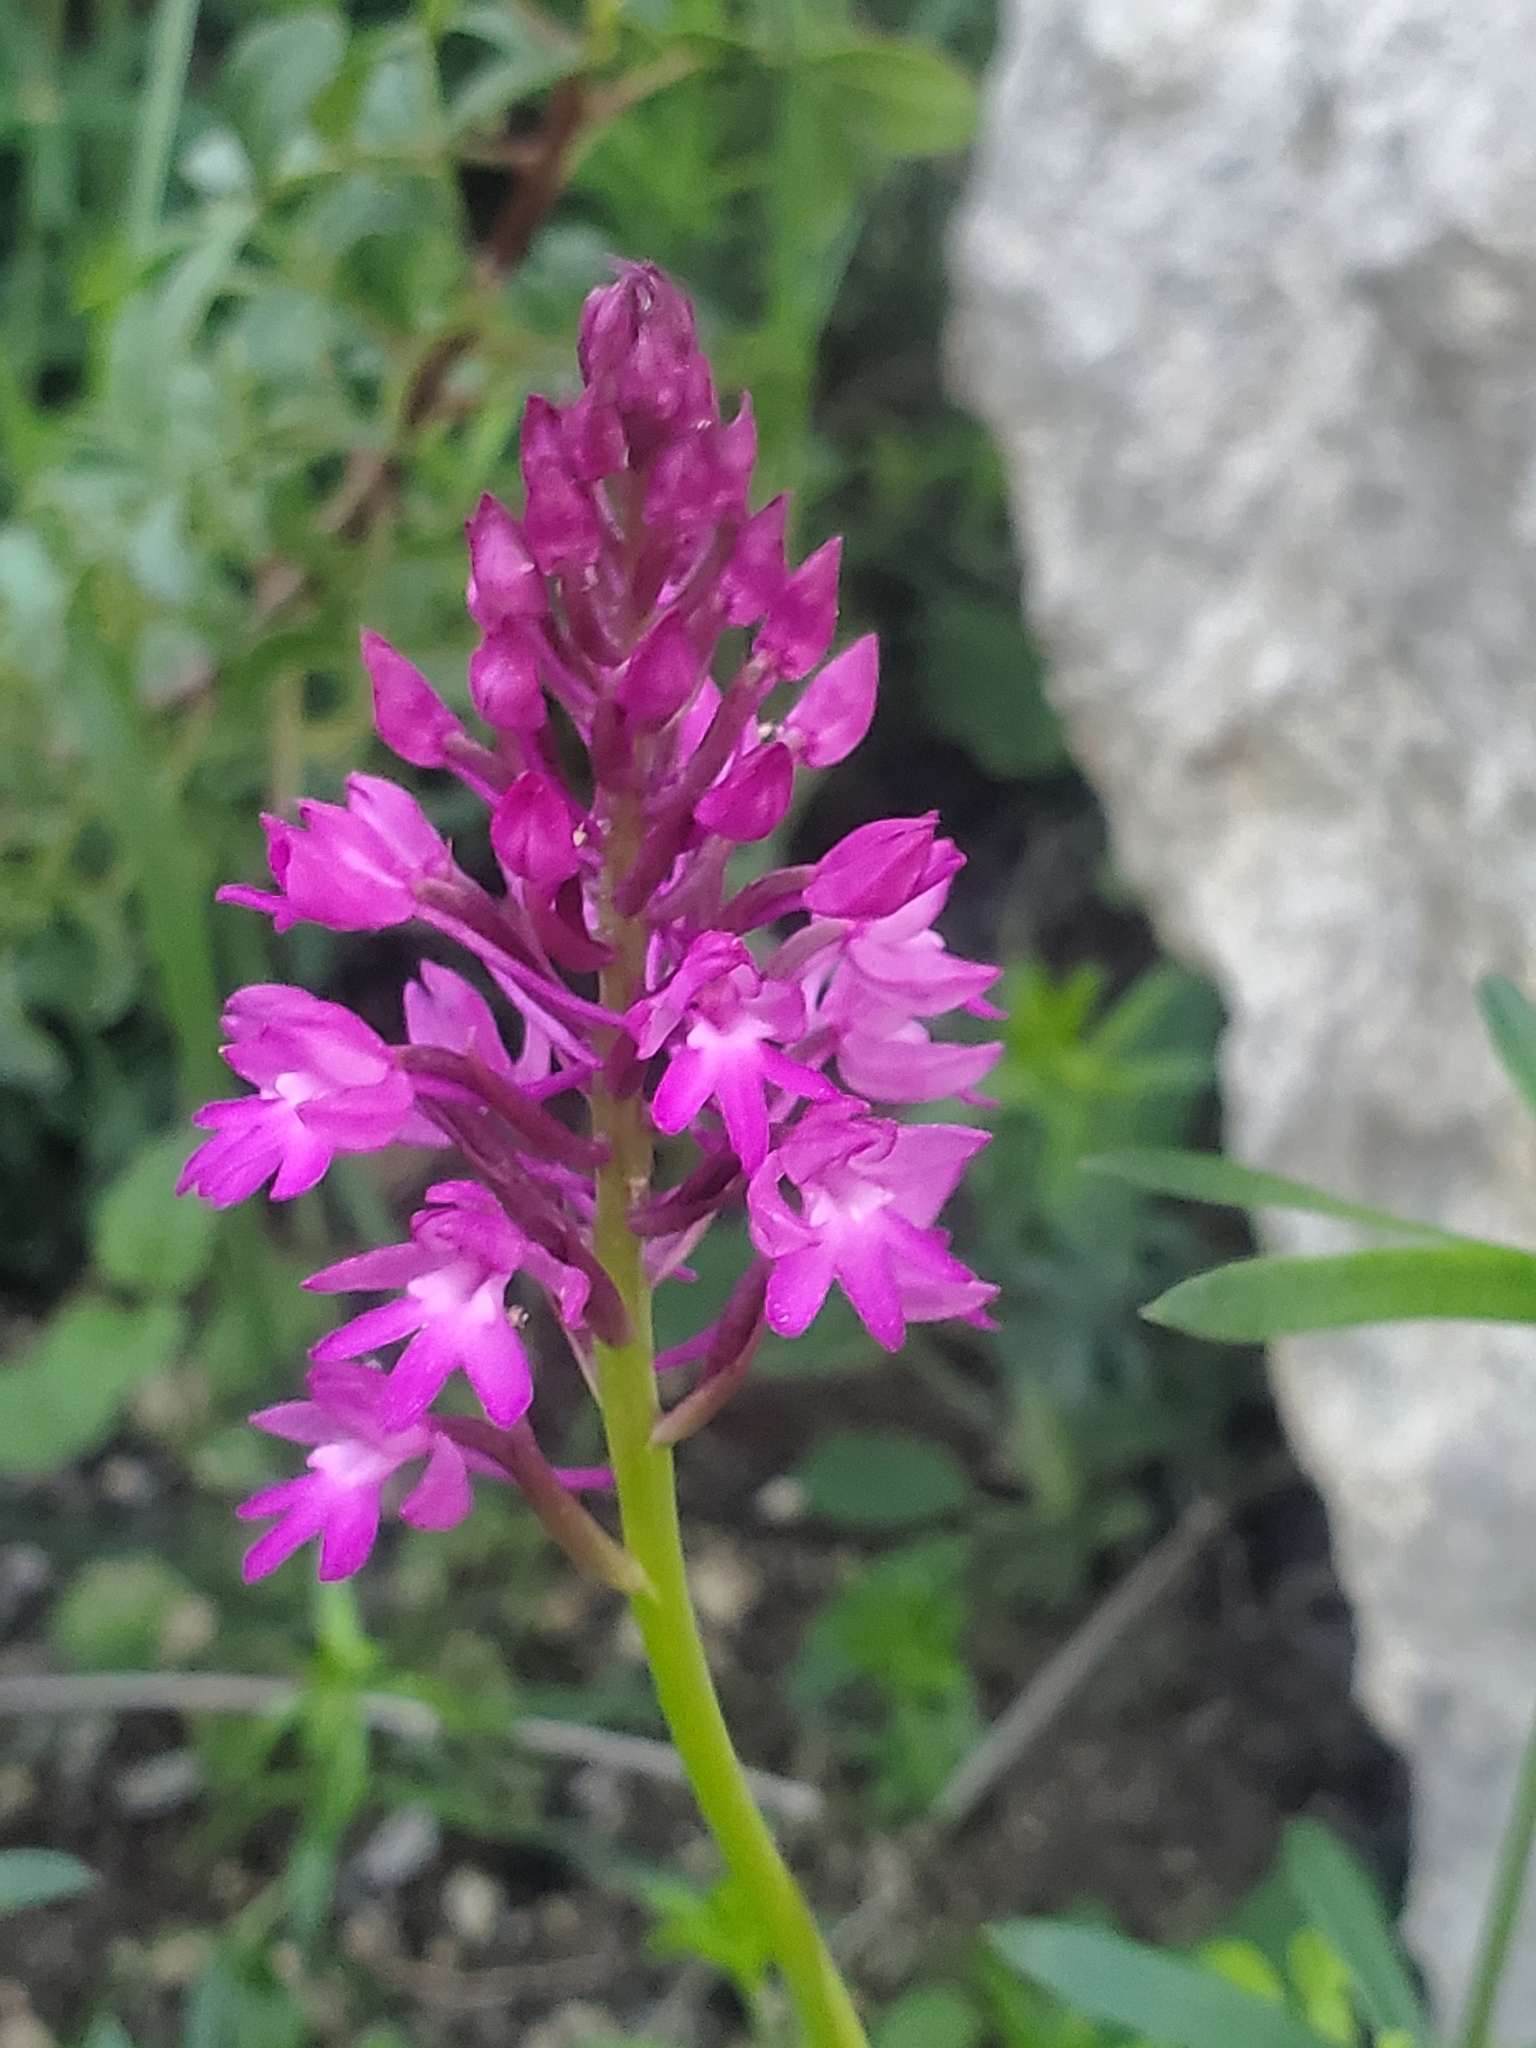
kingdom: Plantae
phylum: Tracheophyta
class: Liliopsida
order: Asparagales
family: Orchidaceae
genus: Anacamptis
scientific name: Anacamptis pyramidalis
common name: Pyramidal orchid
